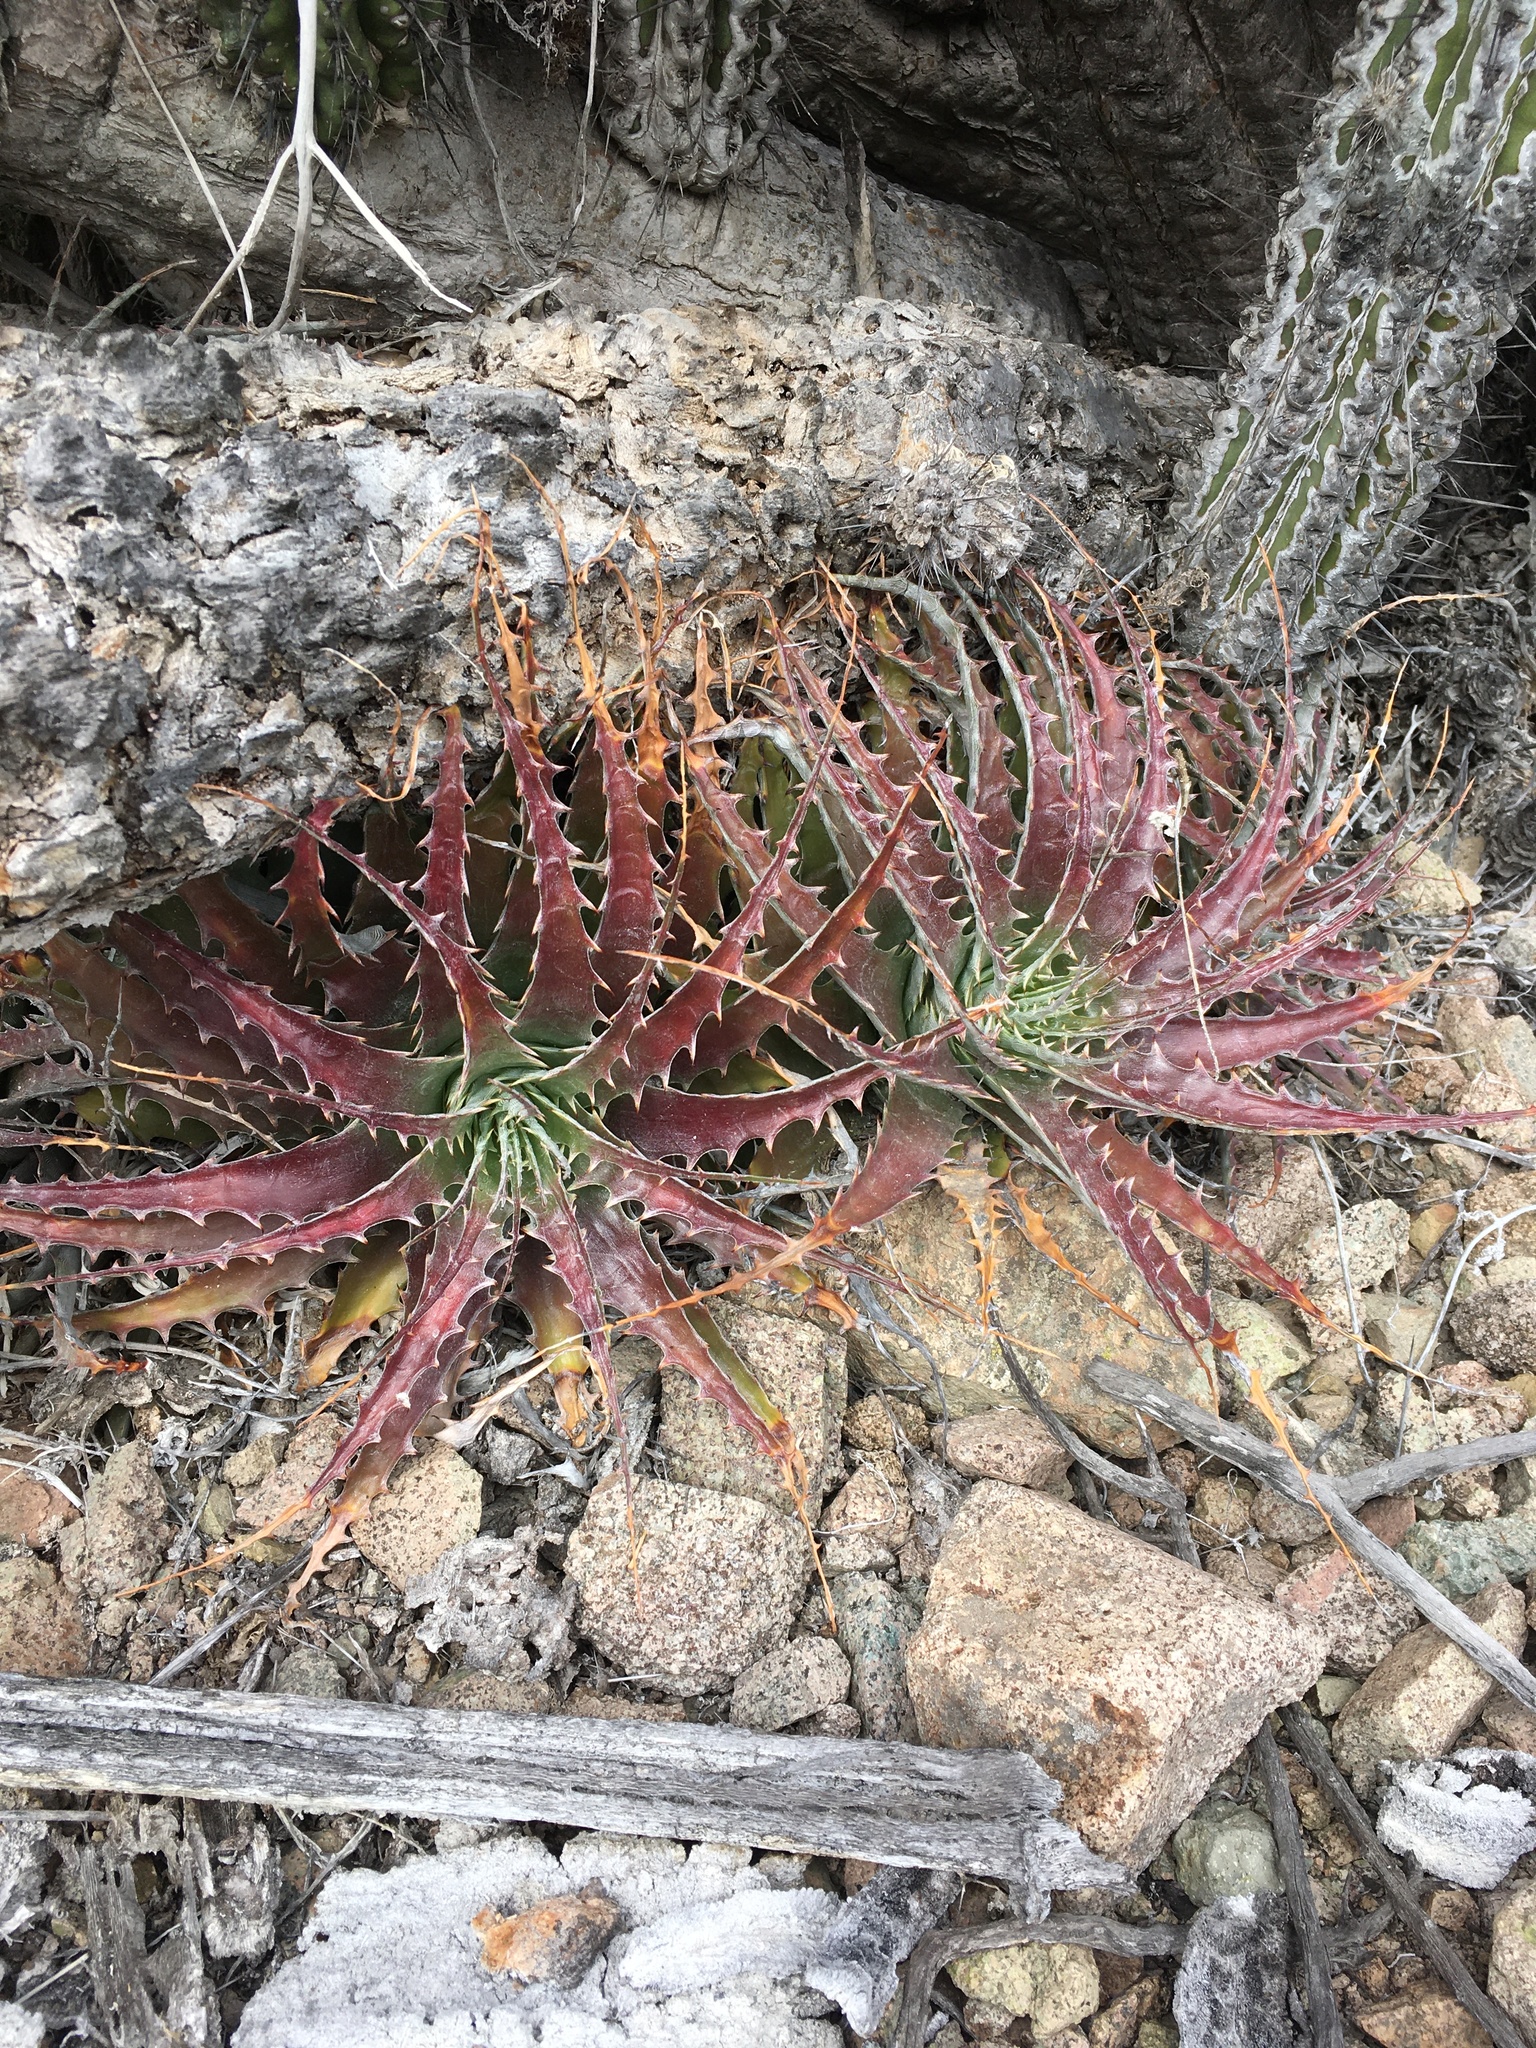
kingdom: Plantae
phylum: Tracheophyta
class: Liliopsida
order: Poales
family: Bromeliaceae
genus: Deuterocohnia
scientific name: Deuterocohnia chrysantha
